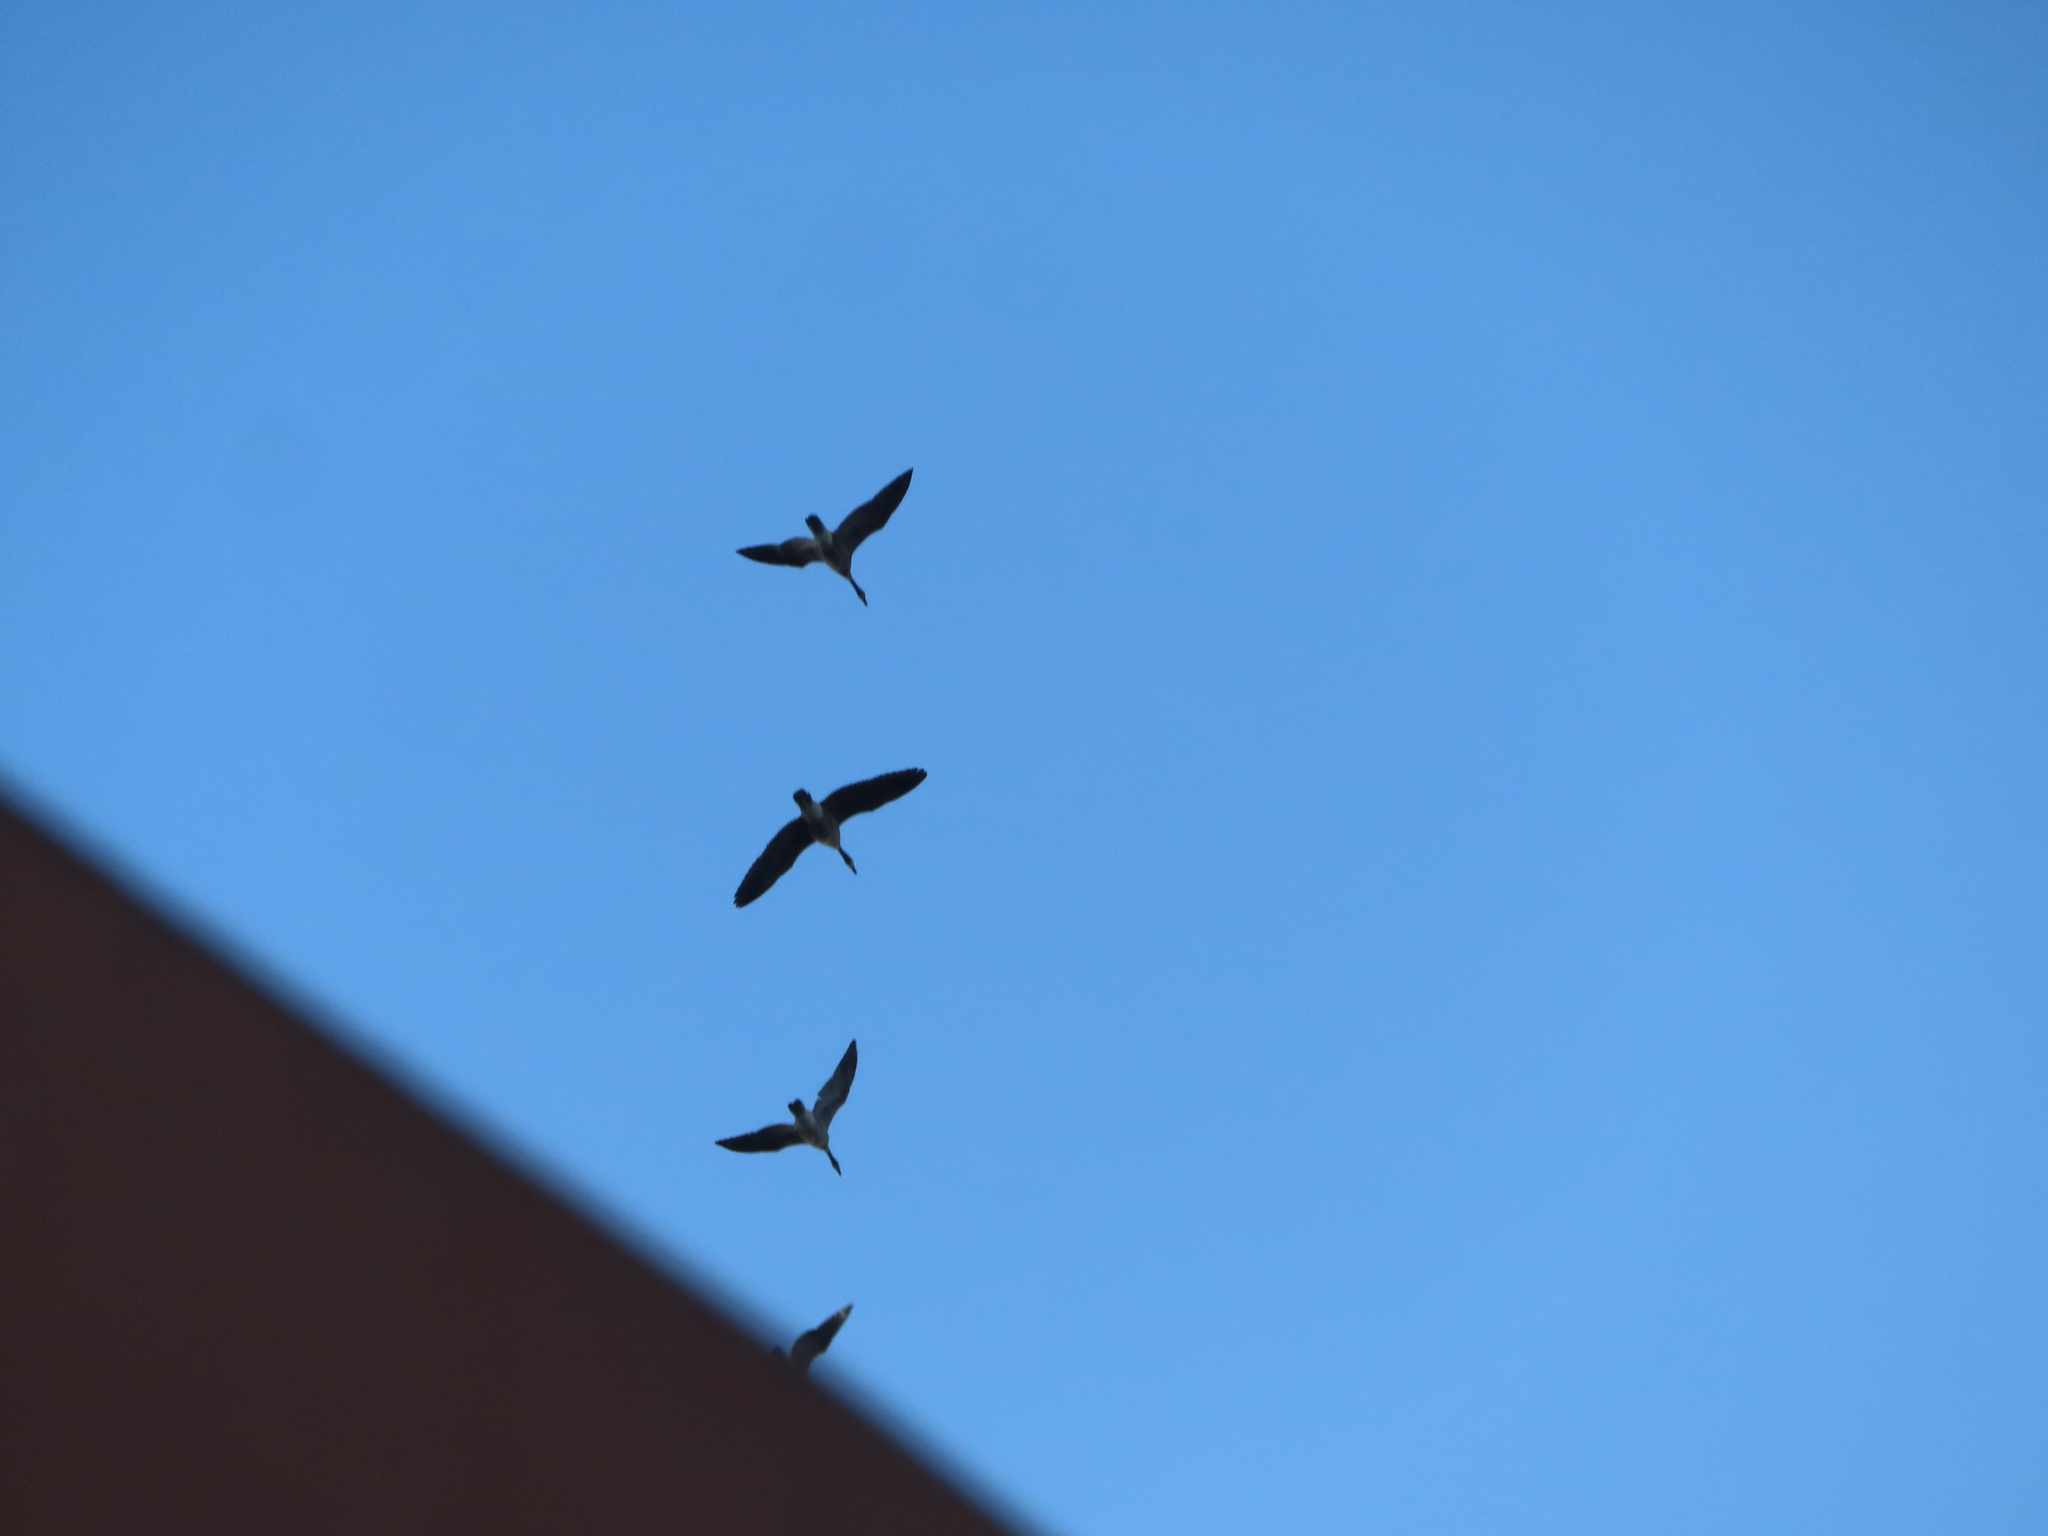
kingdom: Animalia
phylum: Chordata
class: Aves
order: Anseriformes
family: Anatidae
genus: Branta
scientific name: Branta canadensis
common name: Canada goose
